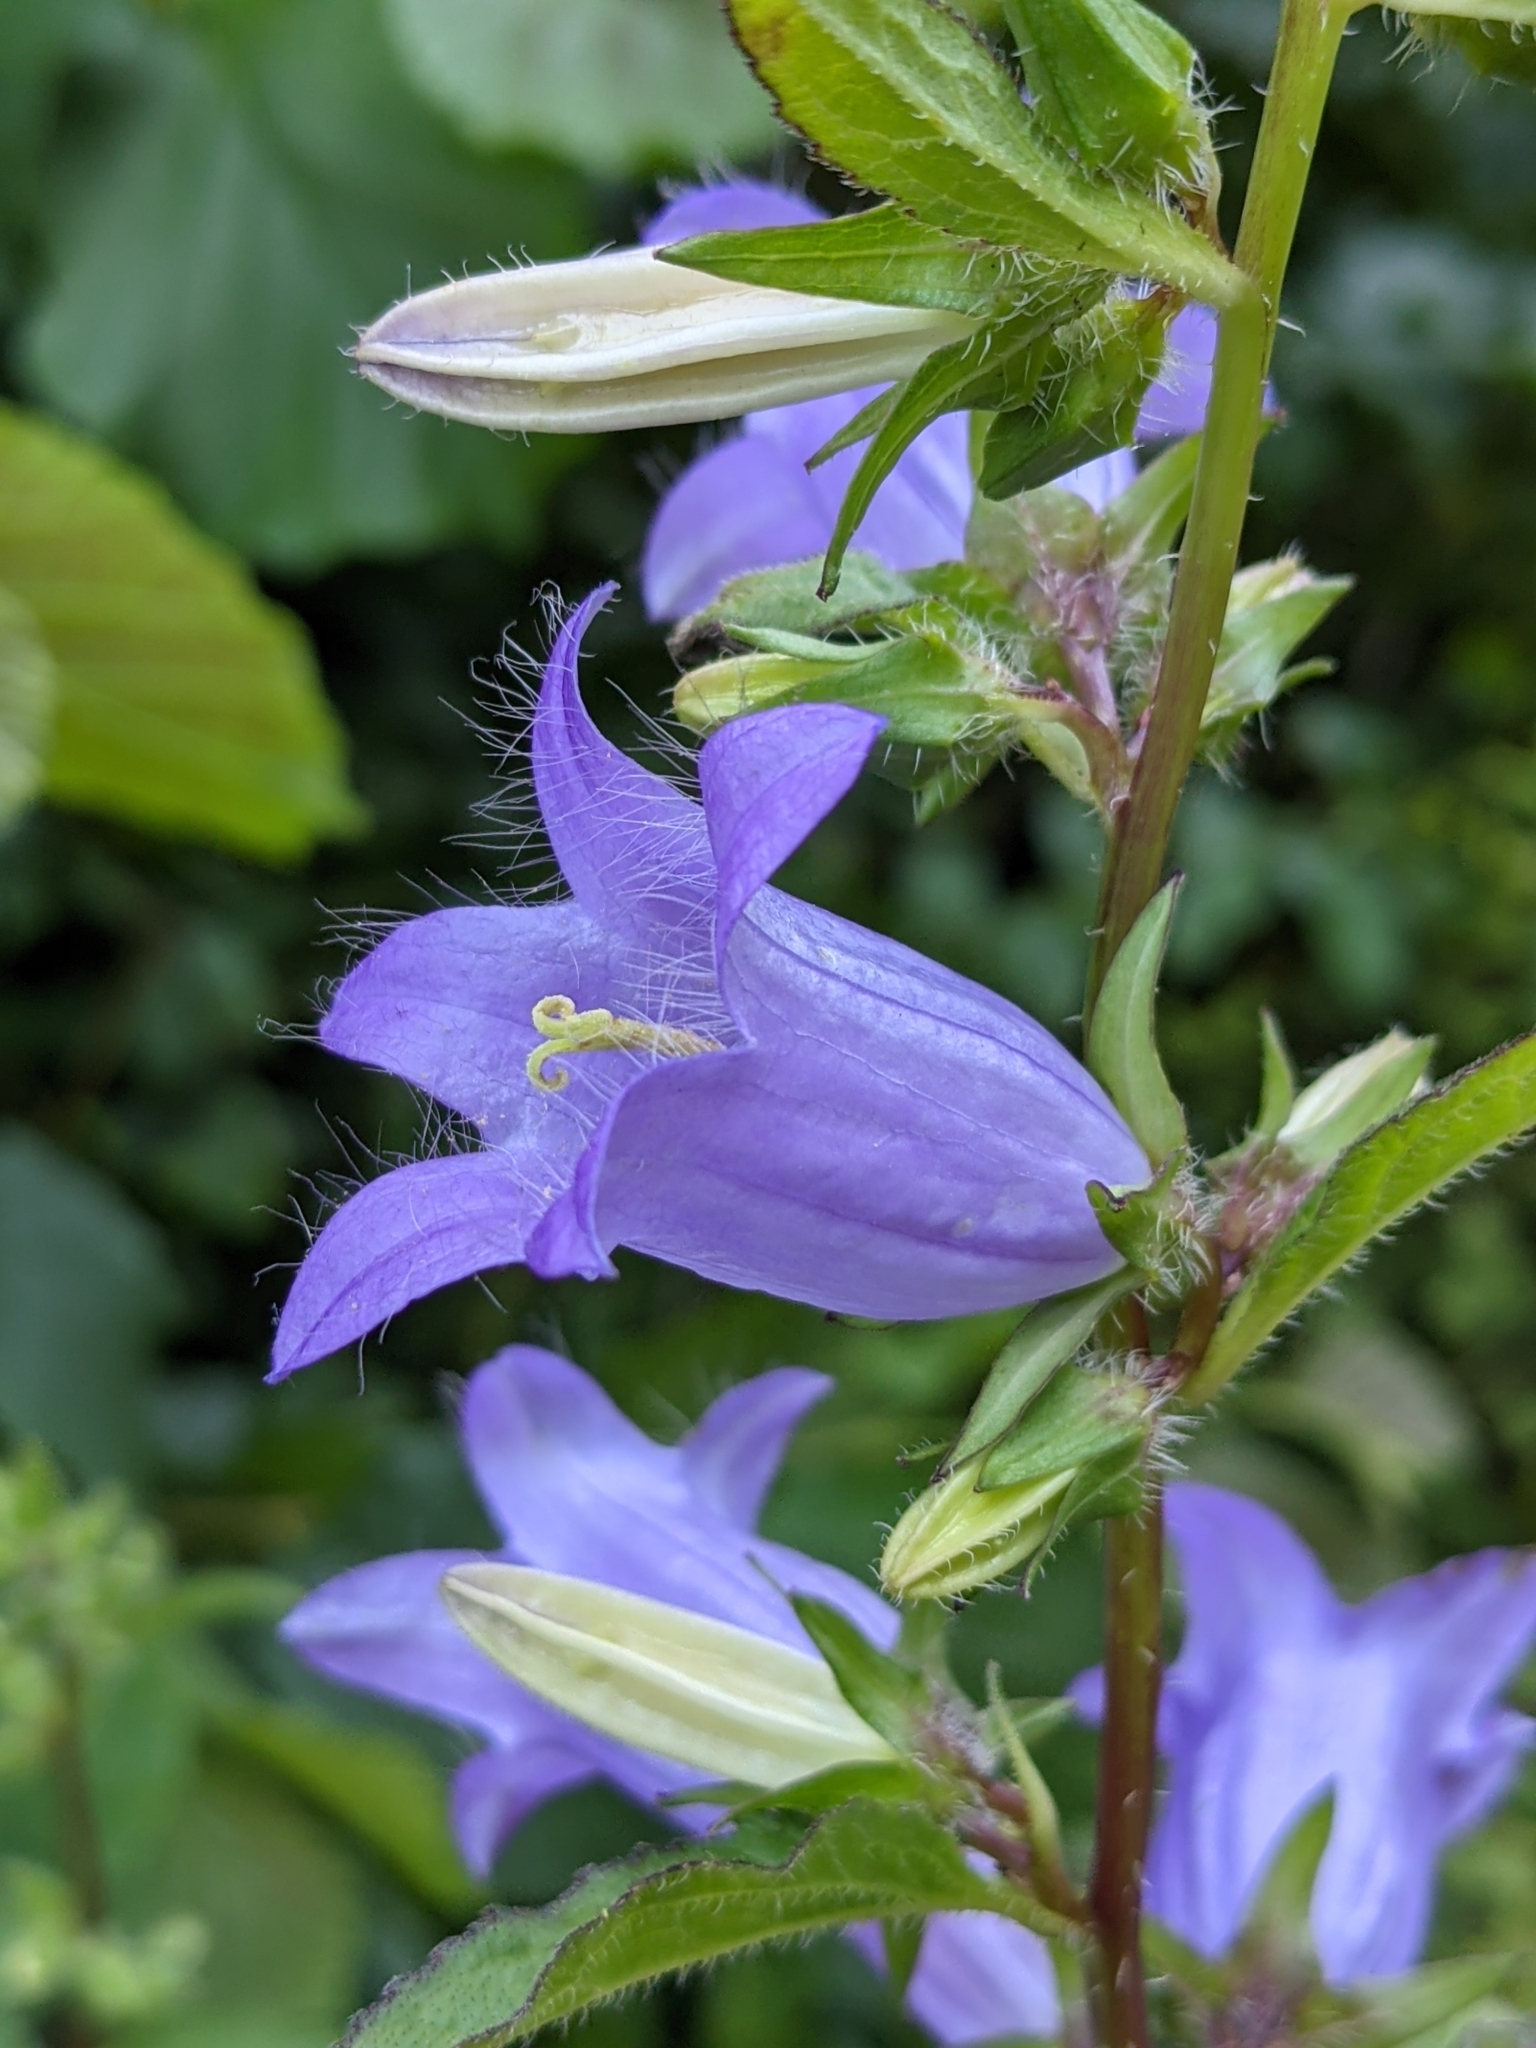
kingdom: Plantae
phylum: Tracheophyta
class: Magnoliopsida
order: Asterales
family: Campanulaceae
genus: Campanula
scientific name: Campanula trachelium
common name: Nettle-leaved bellflower
